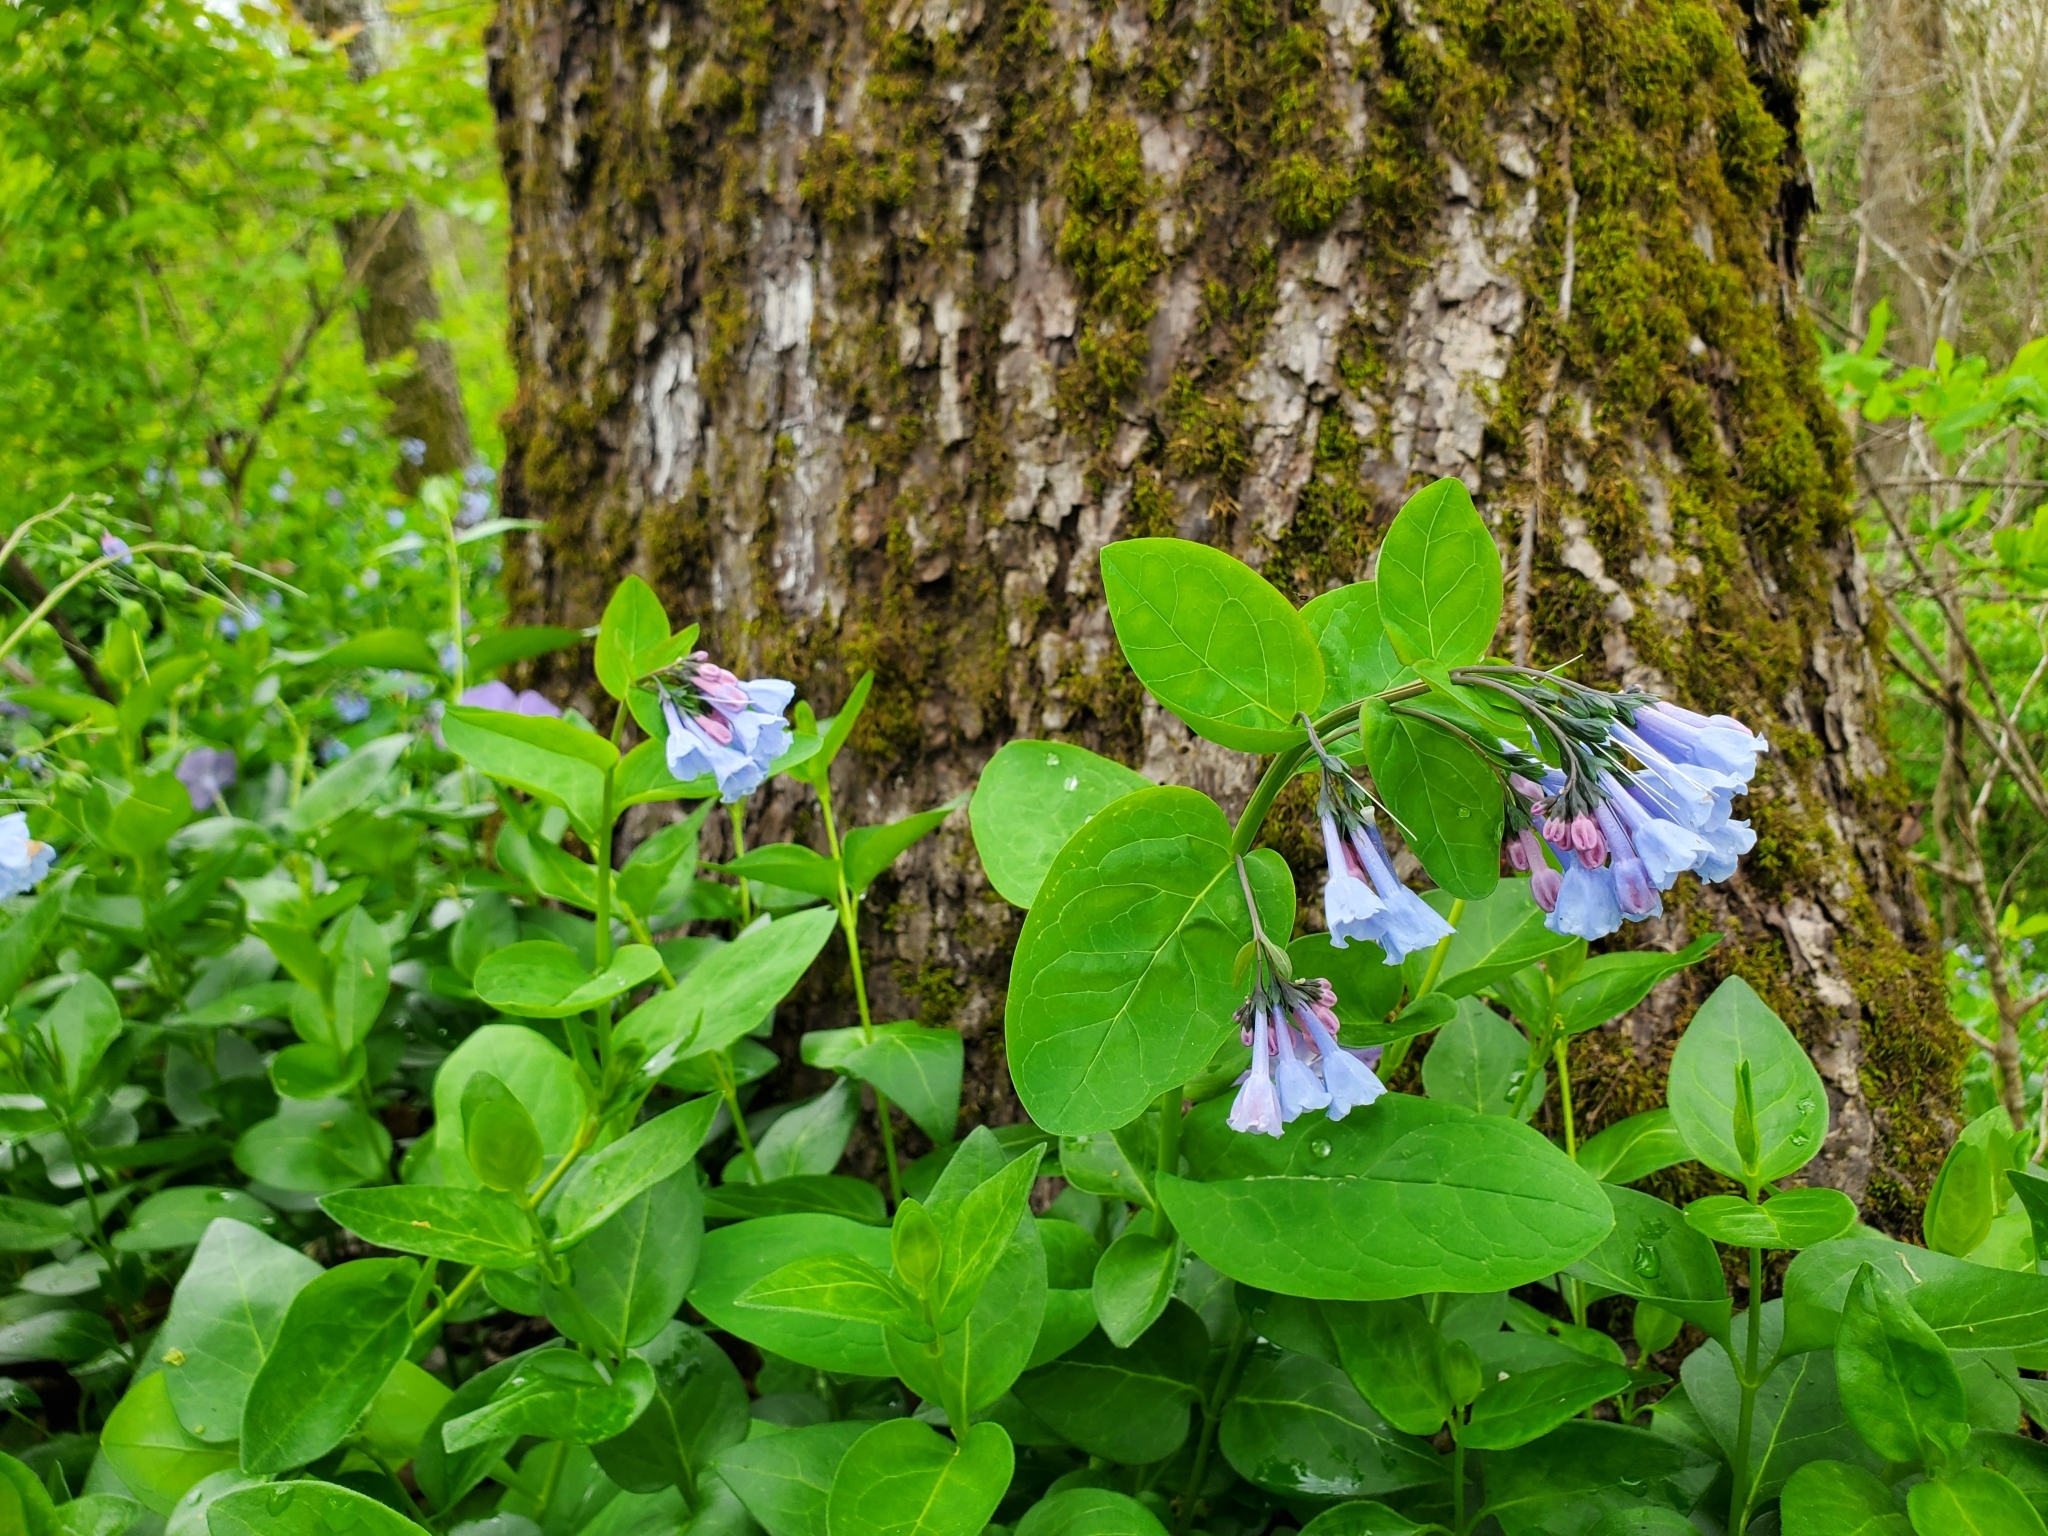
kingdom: Plantae
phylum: Tracheophyta
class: Magnoliopsida
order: Boraginales
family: Boraginaceae
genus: Mertensia
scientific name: Mertensia virginica
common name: Virginia bluebells
